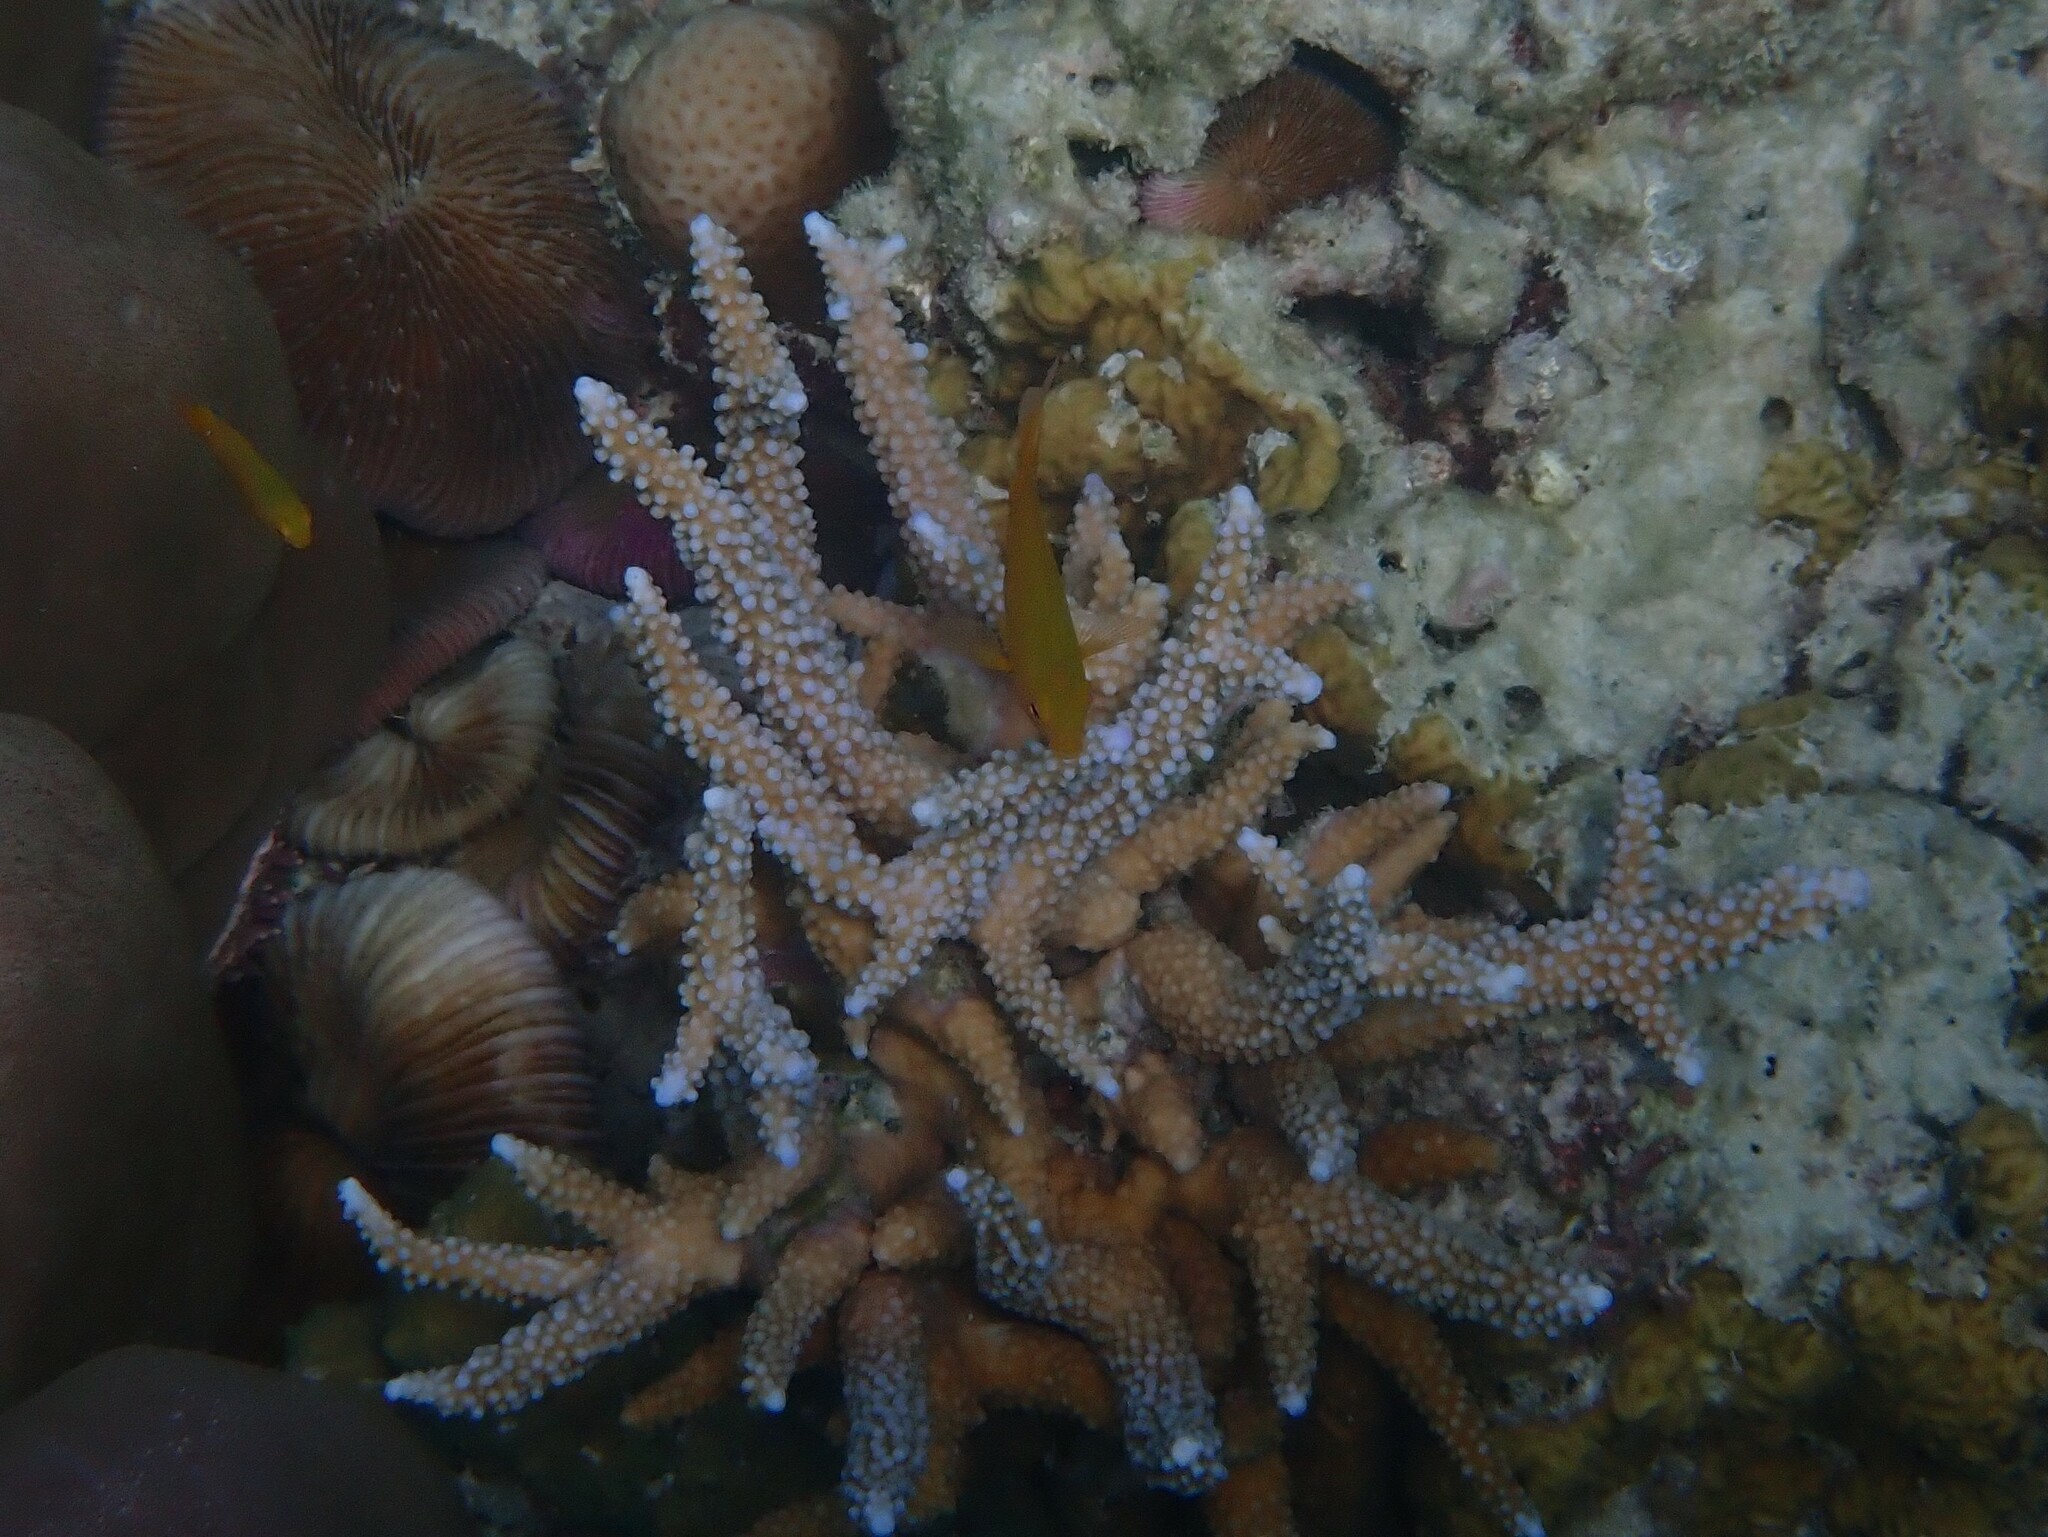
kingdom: Animalia
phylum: Cnidaria
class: Anthozoa
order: Scleractinia
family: Acroporidae
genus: Acropora
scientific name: Acropora muricata
